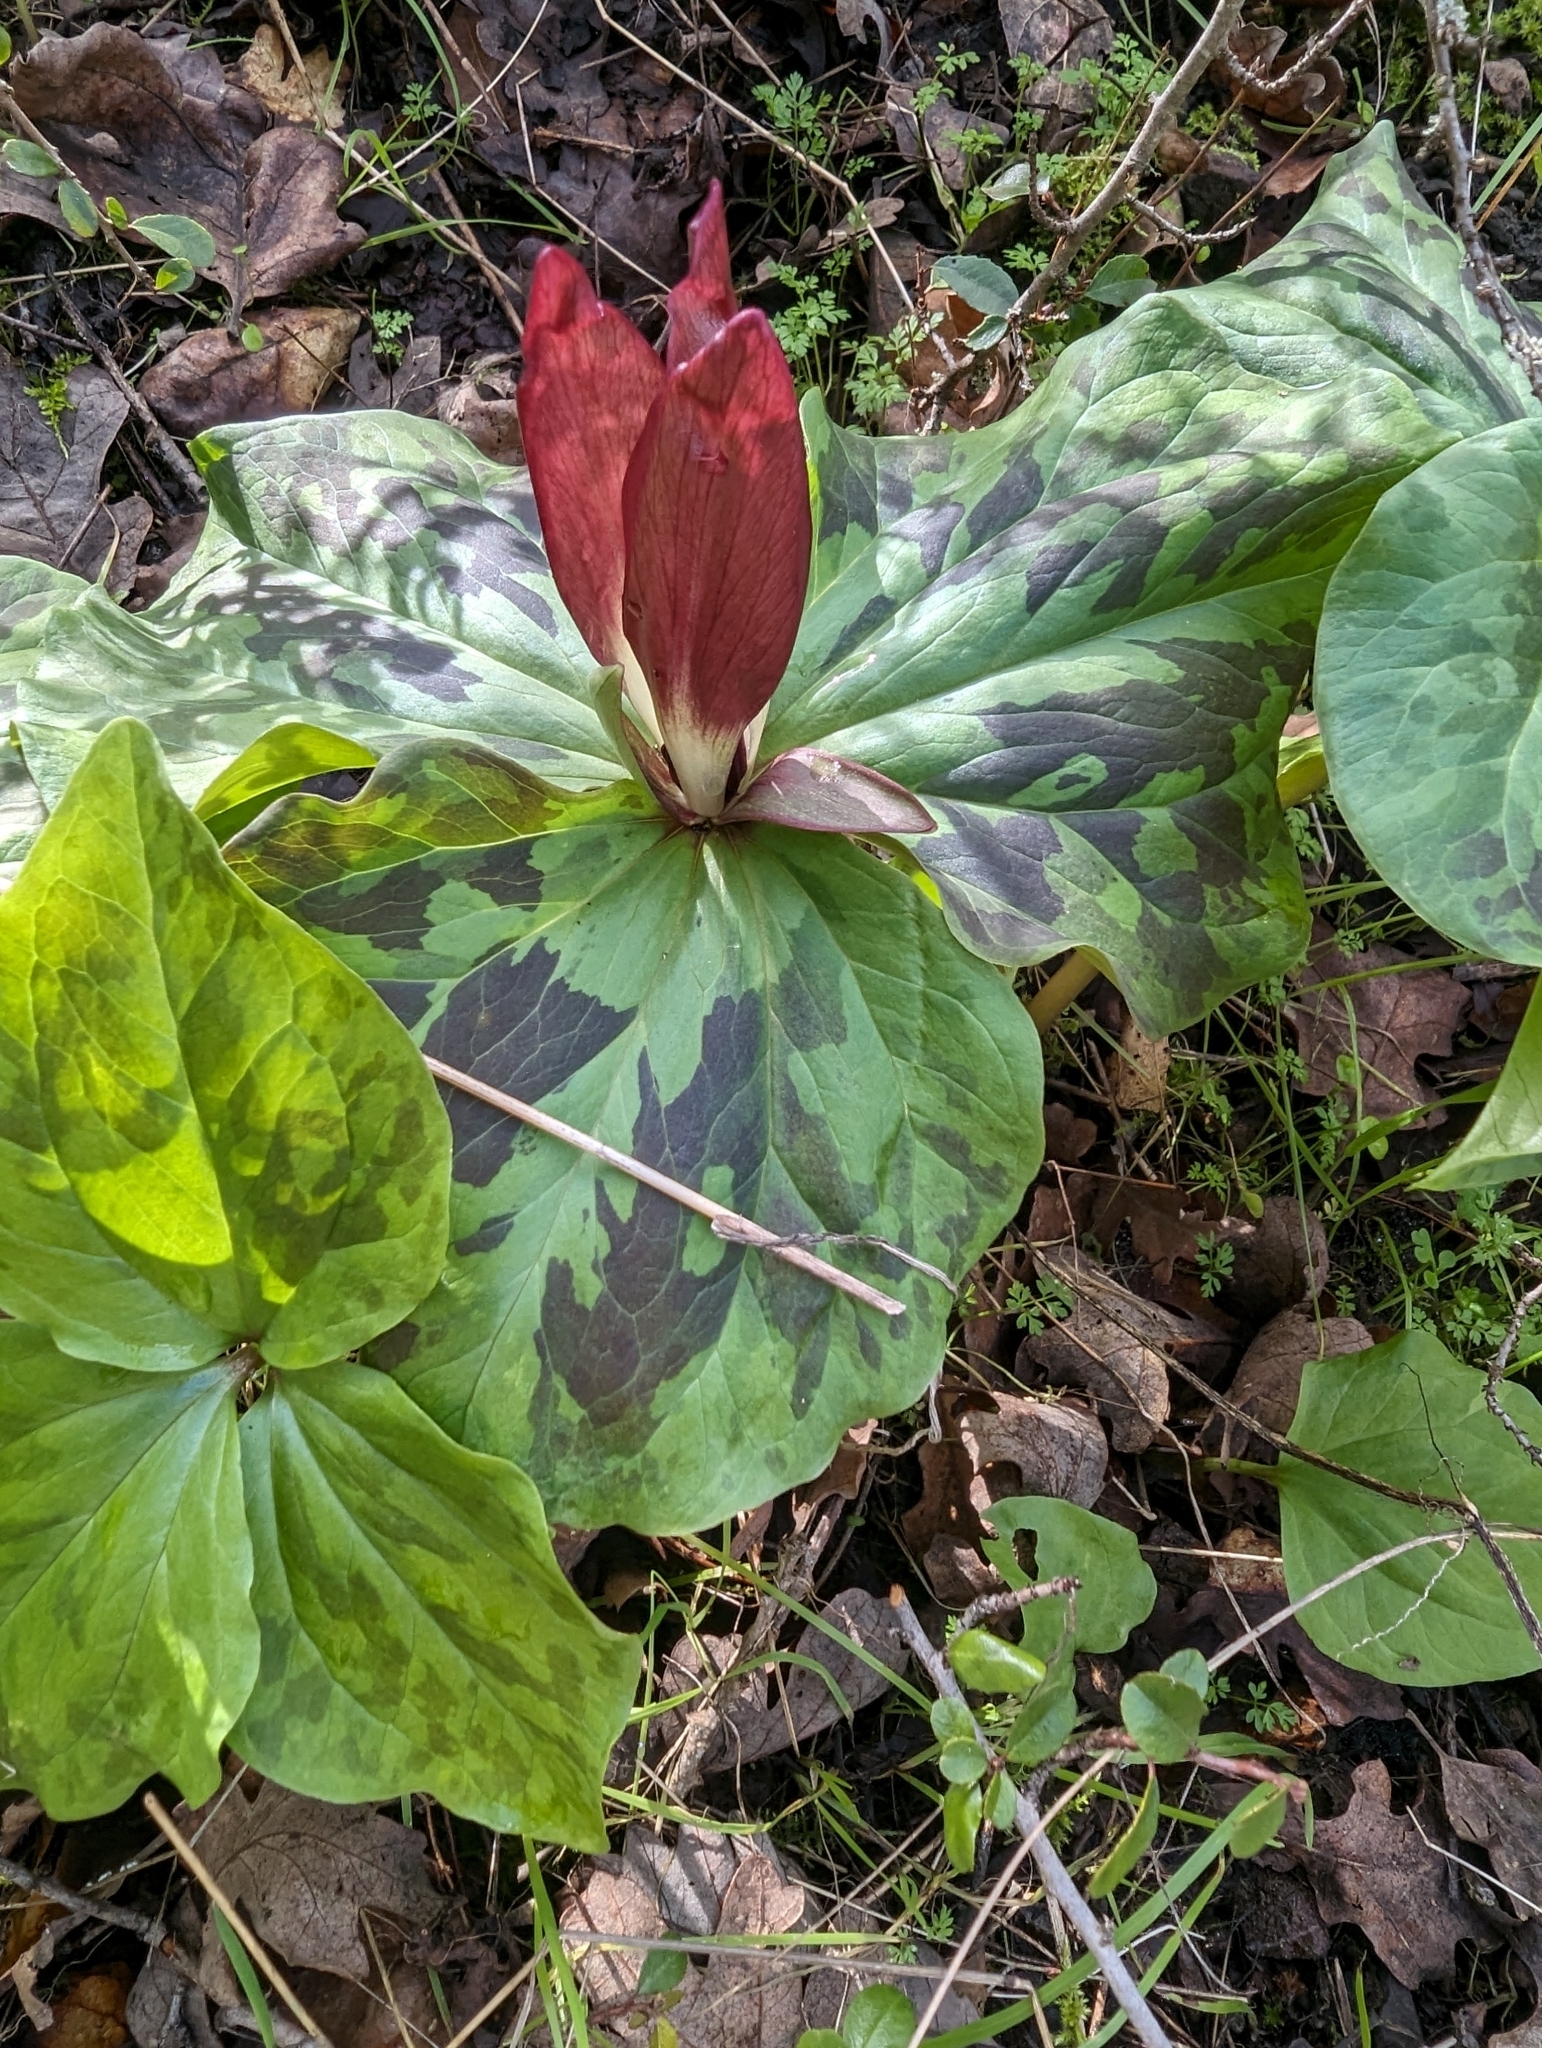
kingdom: Plantae
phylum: Tracheophyta
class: Liliopsida
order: Liliales
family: Melanthiaceae
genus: Trillium
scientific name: Trillium chloropetalum
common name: Giant trillium
